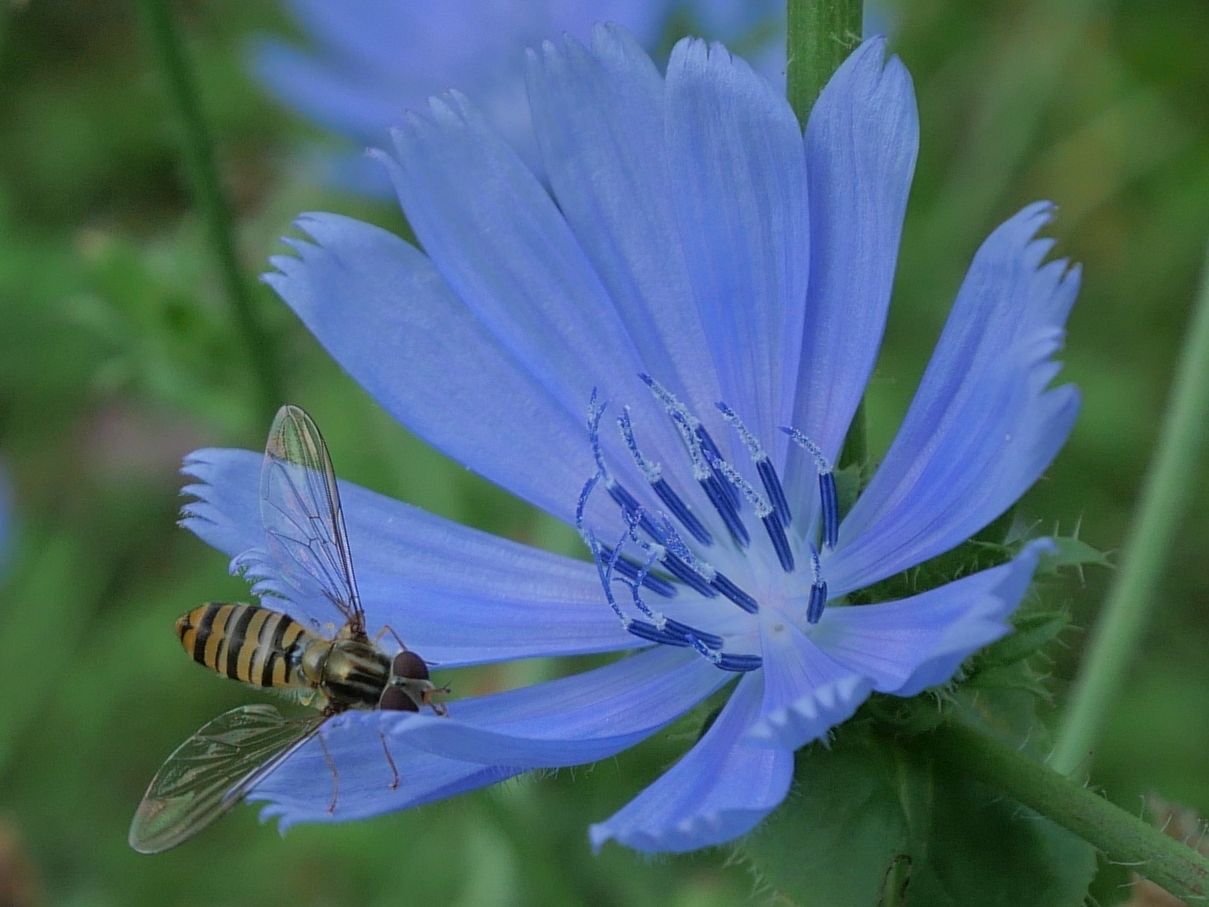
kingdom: Animalia
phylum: Arthropoda
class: Insecta
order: Diptera
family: Syrphidae
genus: Episyrphus
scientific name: Episyrphus balteatus
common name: Marmalade hoverfly
